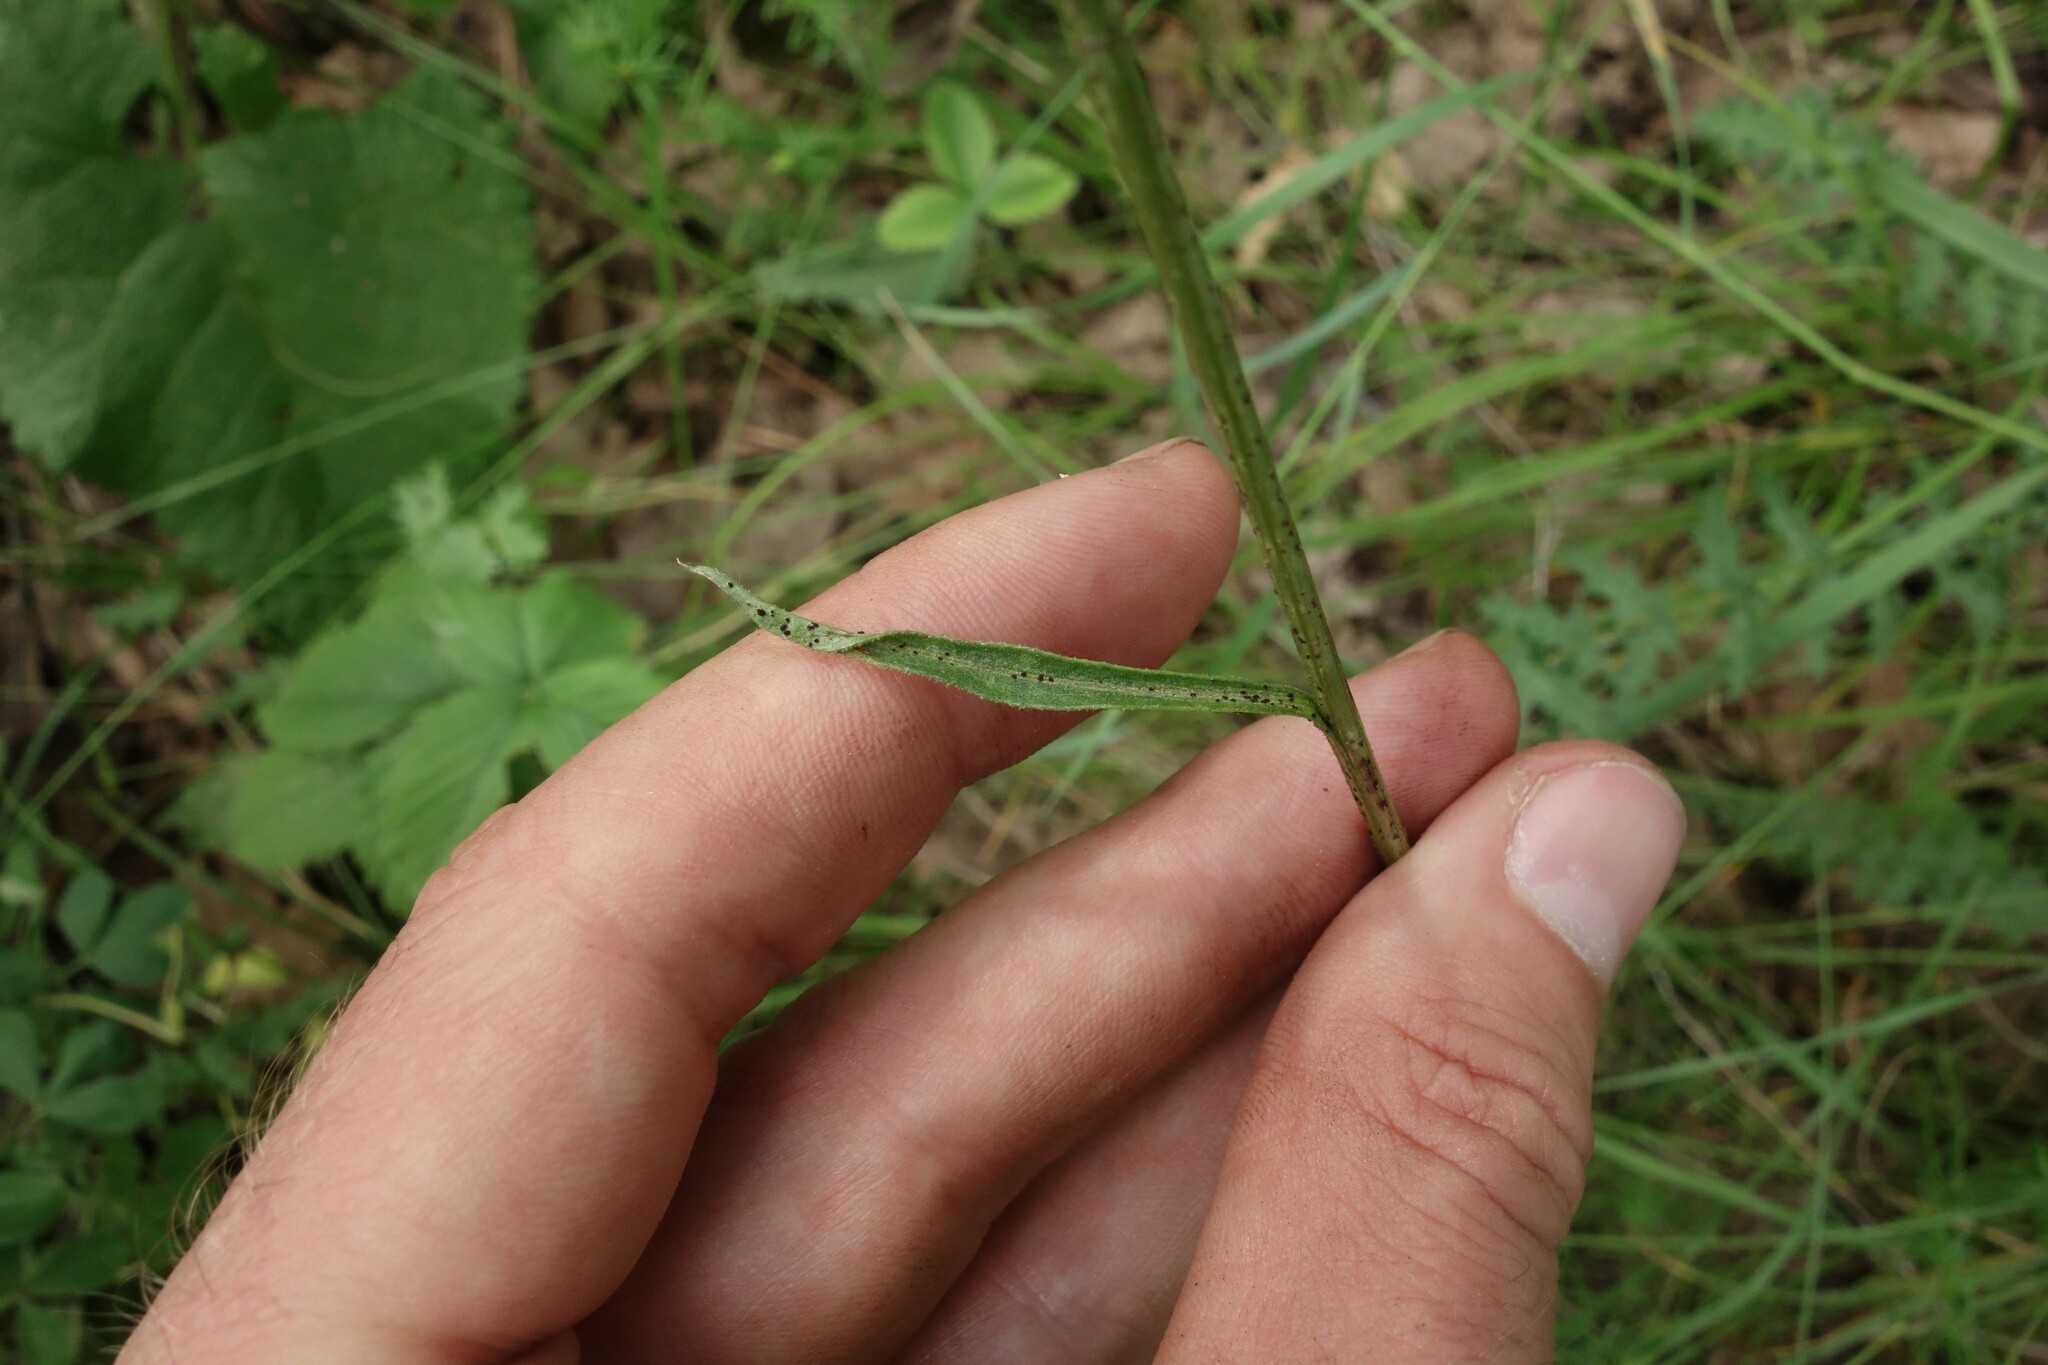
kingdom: Plantae
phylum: Tracheophyta
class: Magnoliopsida
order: Asterales
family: Asteraceae
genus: Klasea
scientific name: Klasea lycopifolia
